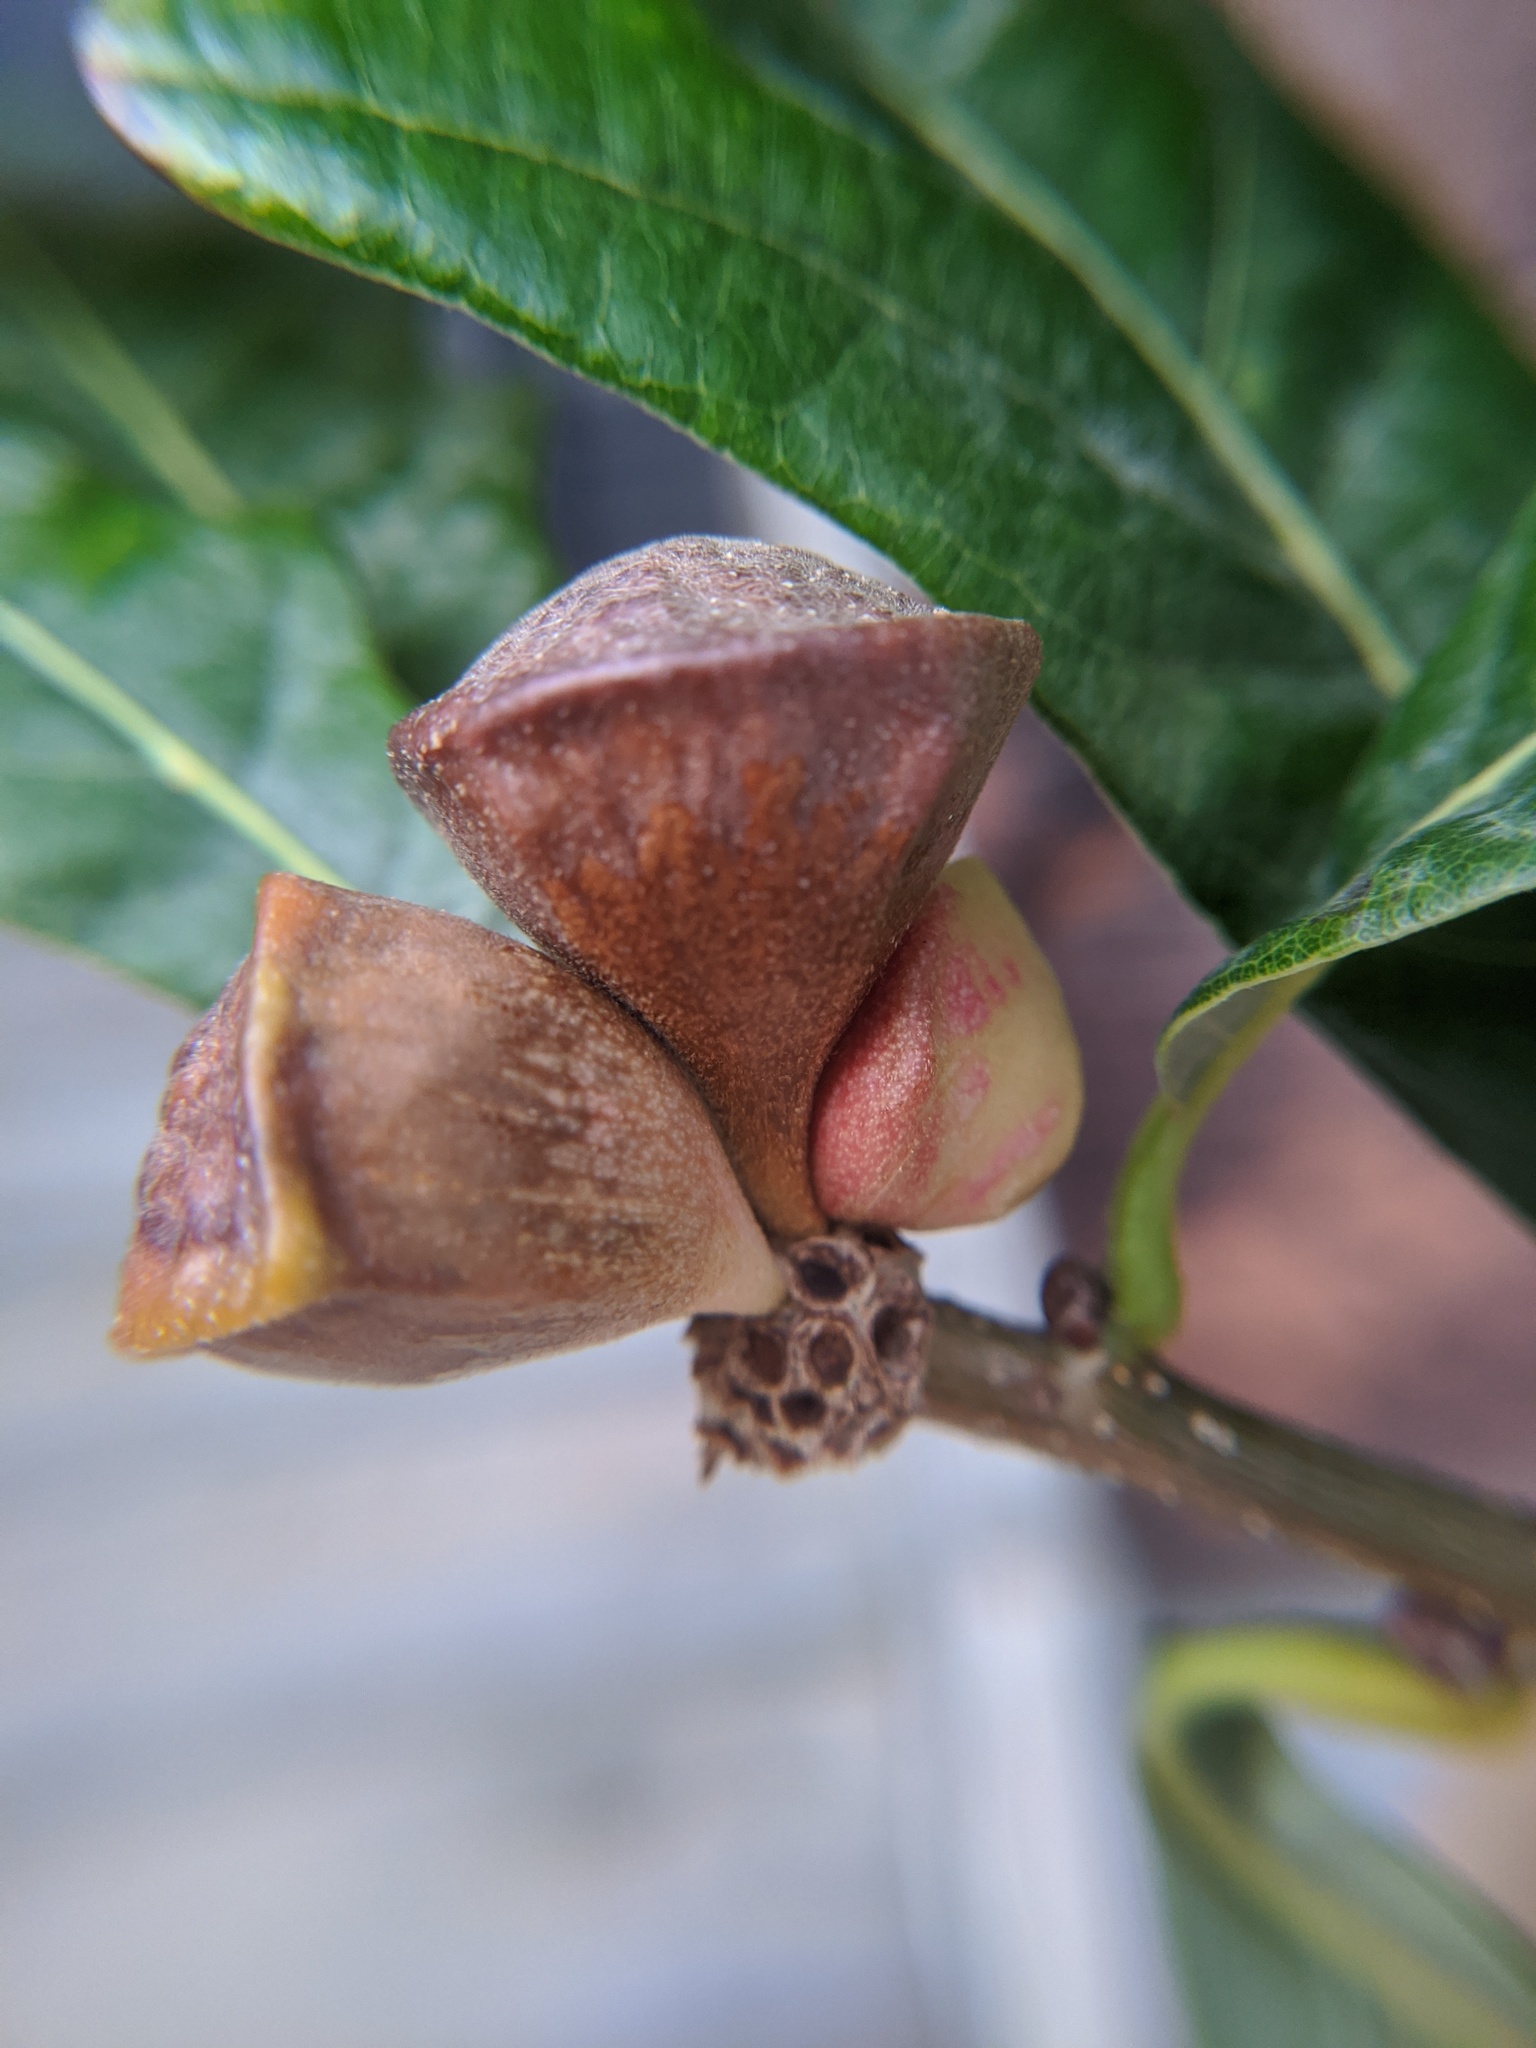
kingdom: Animalia
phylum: Arthropoda
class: Insecta
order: Hymenoptera
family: Cynipidae
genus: Andricus
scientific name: Andricus
